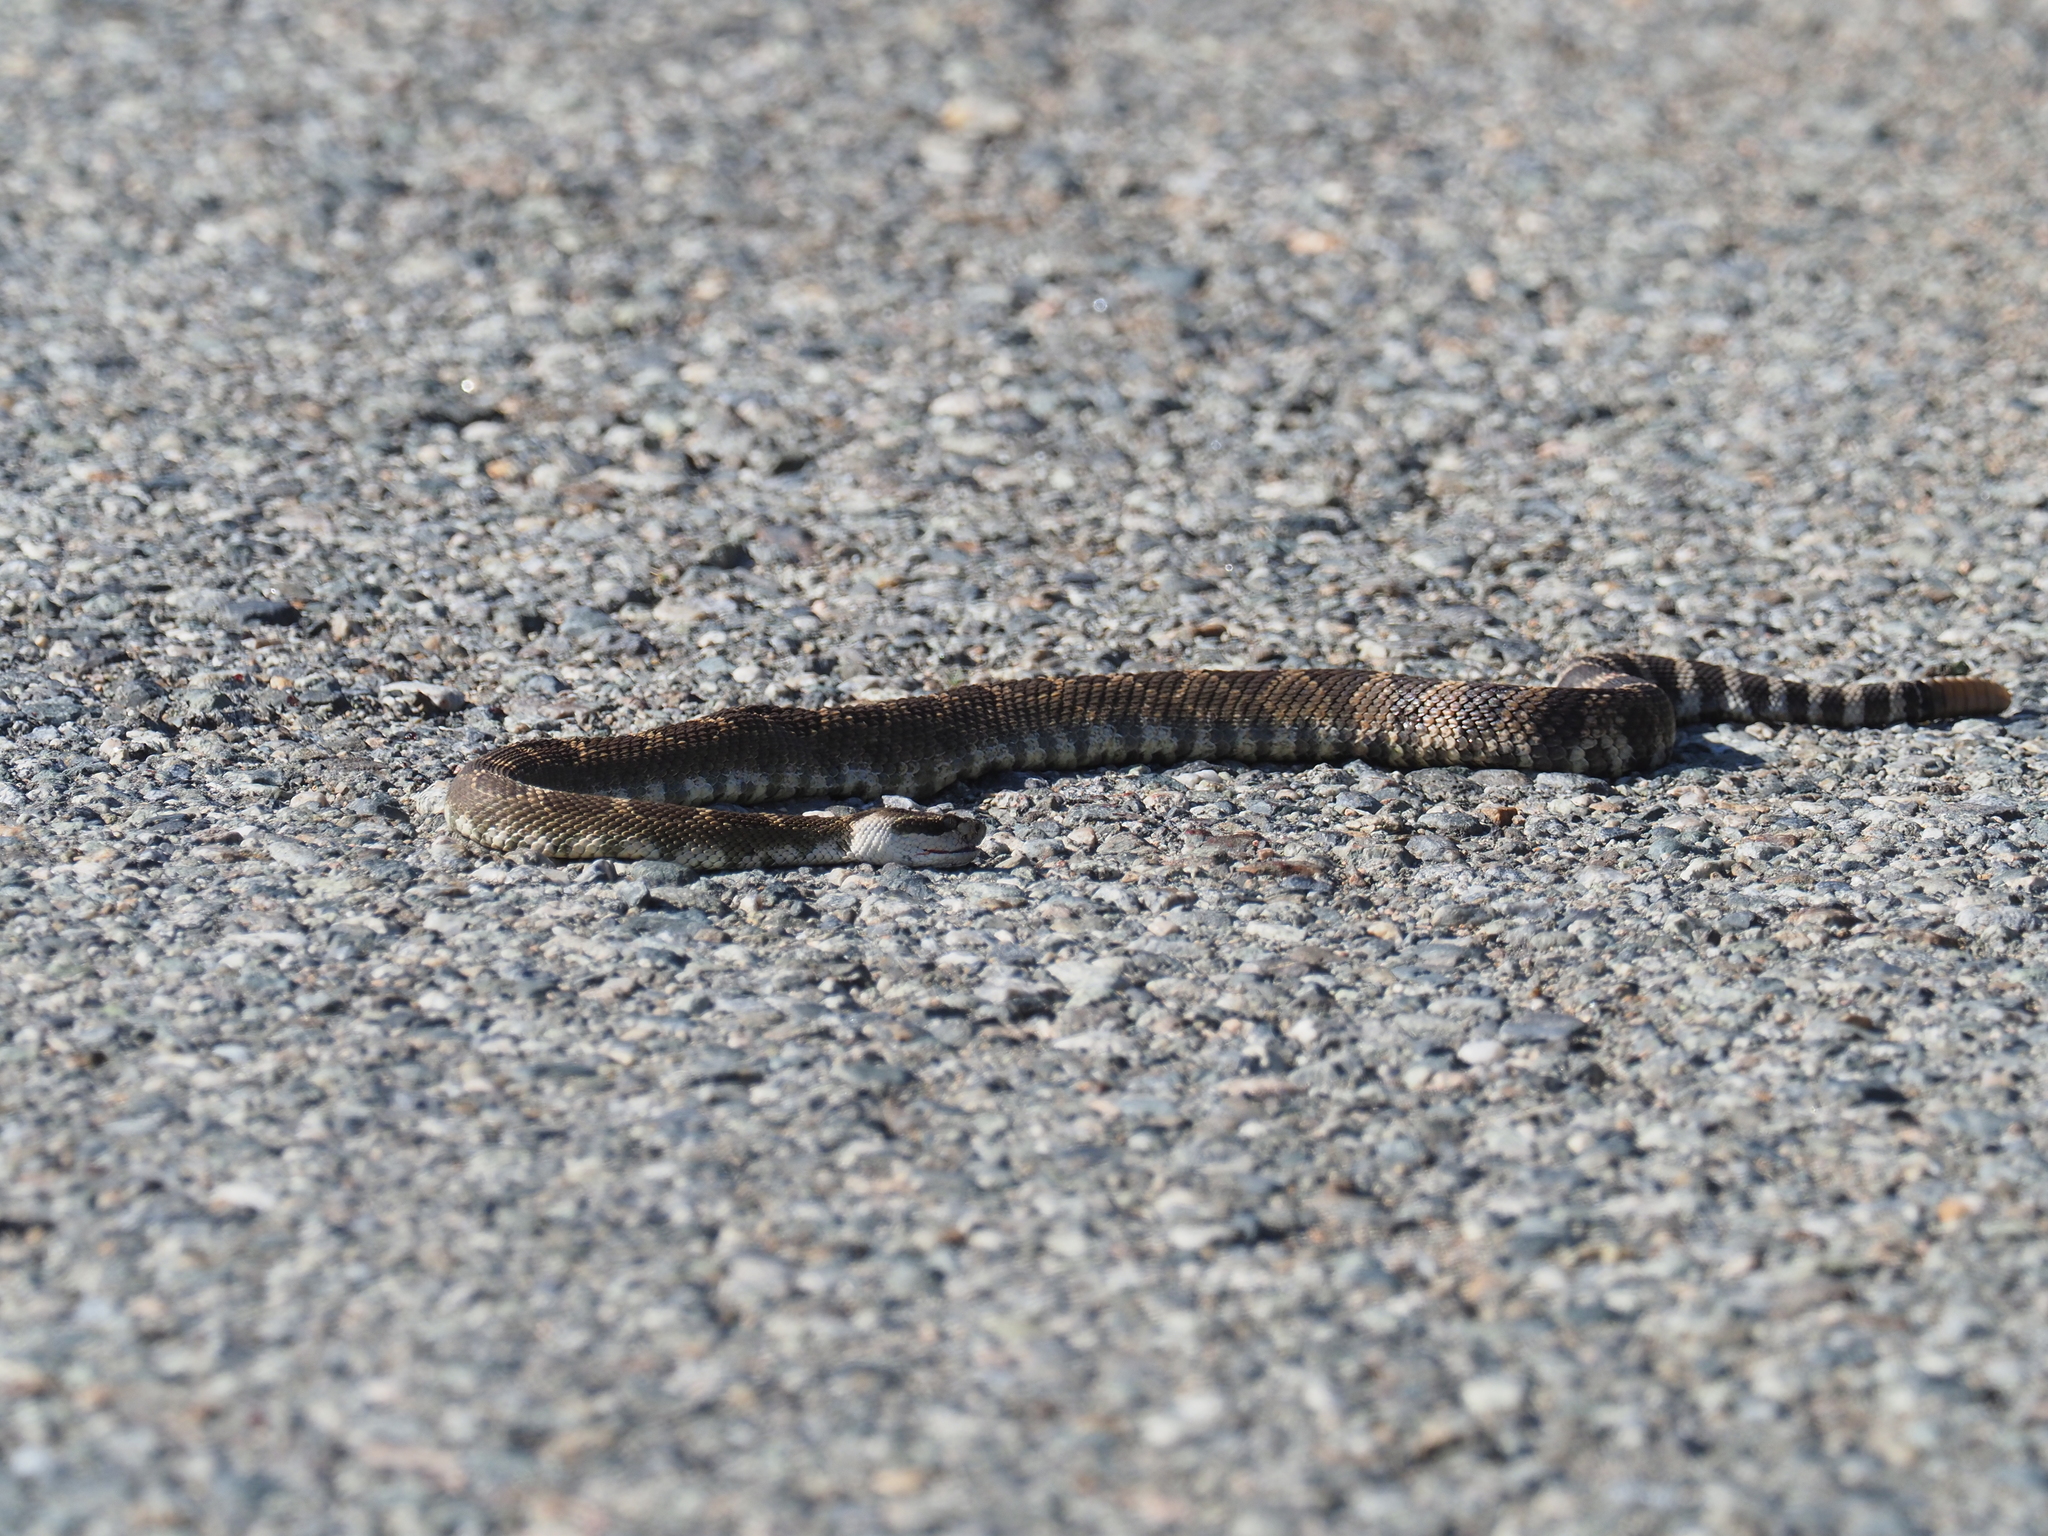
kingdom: Animalia
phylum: Chordata
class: Squamata
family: Viperidae
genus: Crotalus
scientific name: Crotalus oreganus
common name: Abyssus
